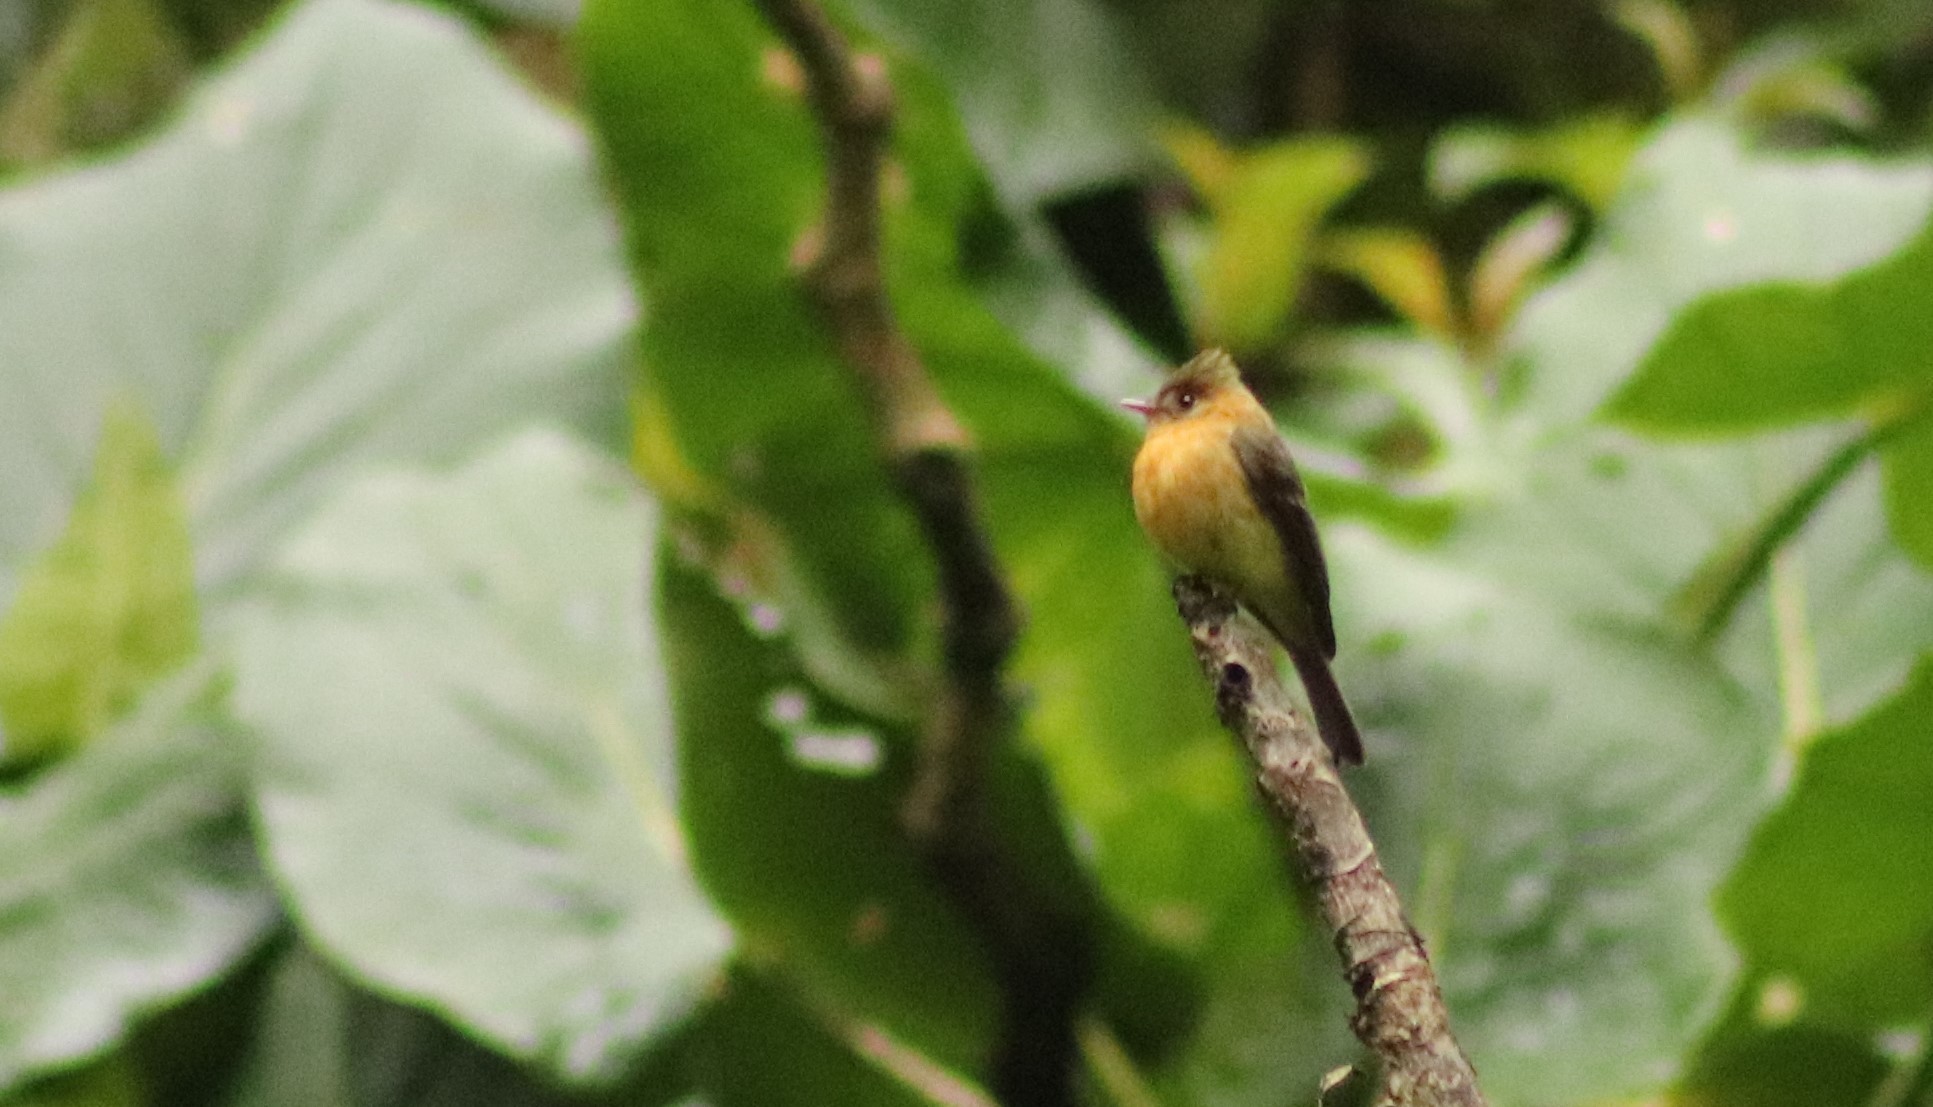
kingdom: Animalia
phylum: Chordata
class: Aves
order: Passeriformes
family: Tyrannidae
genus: Mitrephanes
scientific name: Mitrephanes phaeocercus
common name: Northern tufted flycatcher
